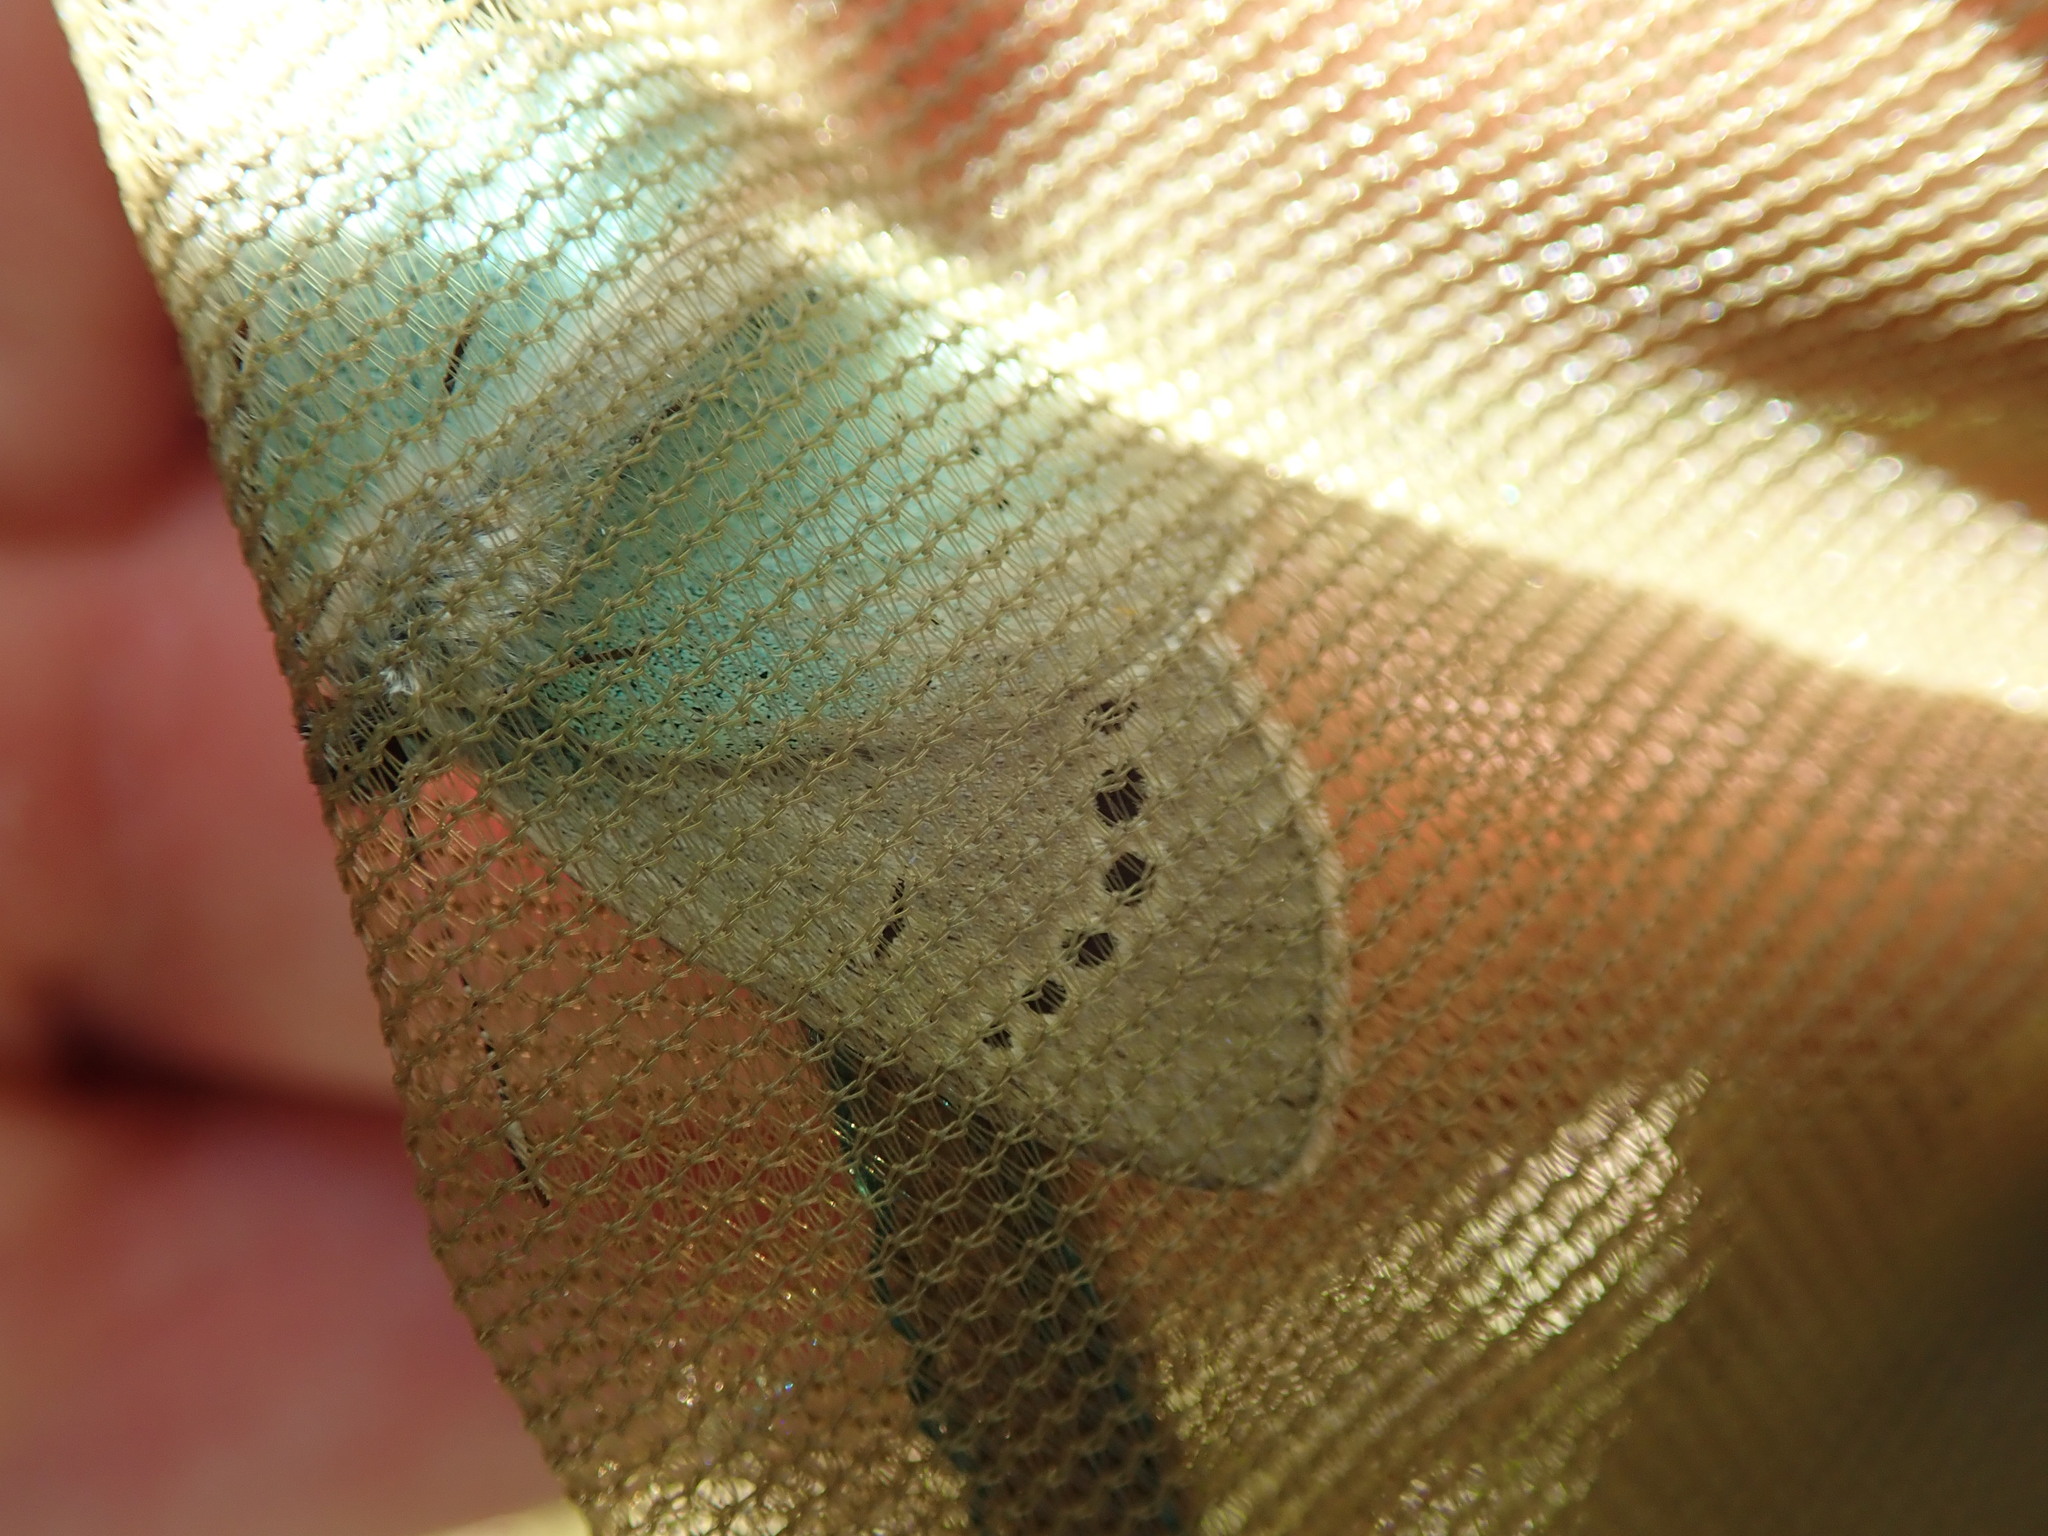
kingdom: Animalia
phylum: Arthropoda
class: Insecta
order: Lepidoptera
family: Lycaenidae
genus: Glaucopsyche
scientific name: Glaucopsyche alexis
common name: Green-underside blue
